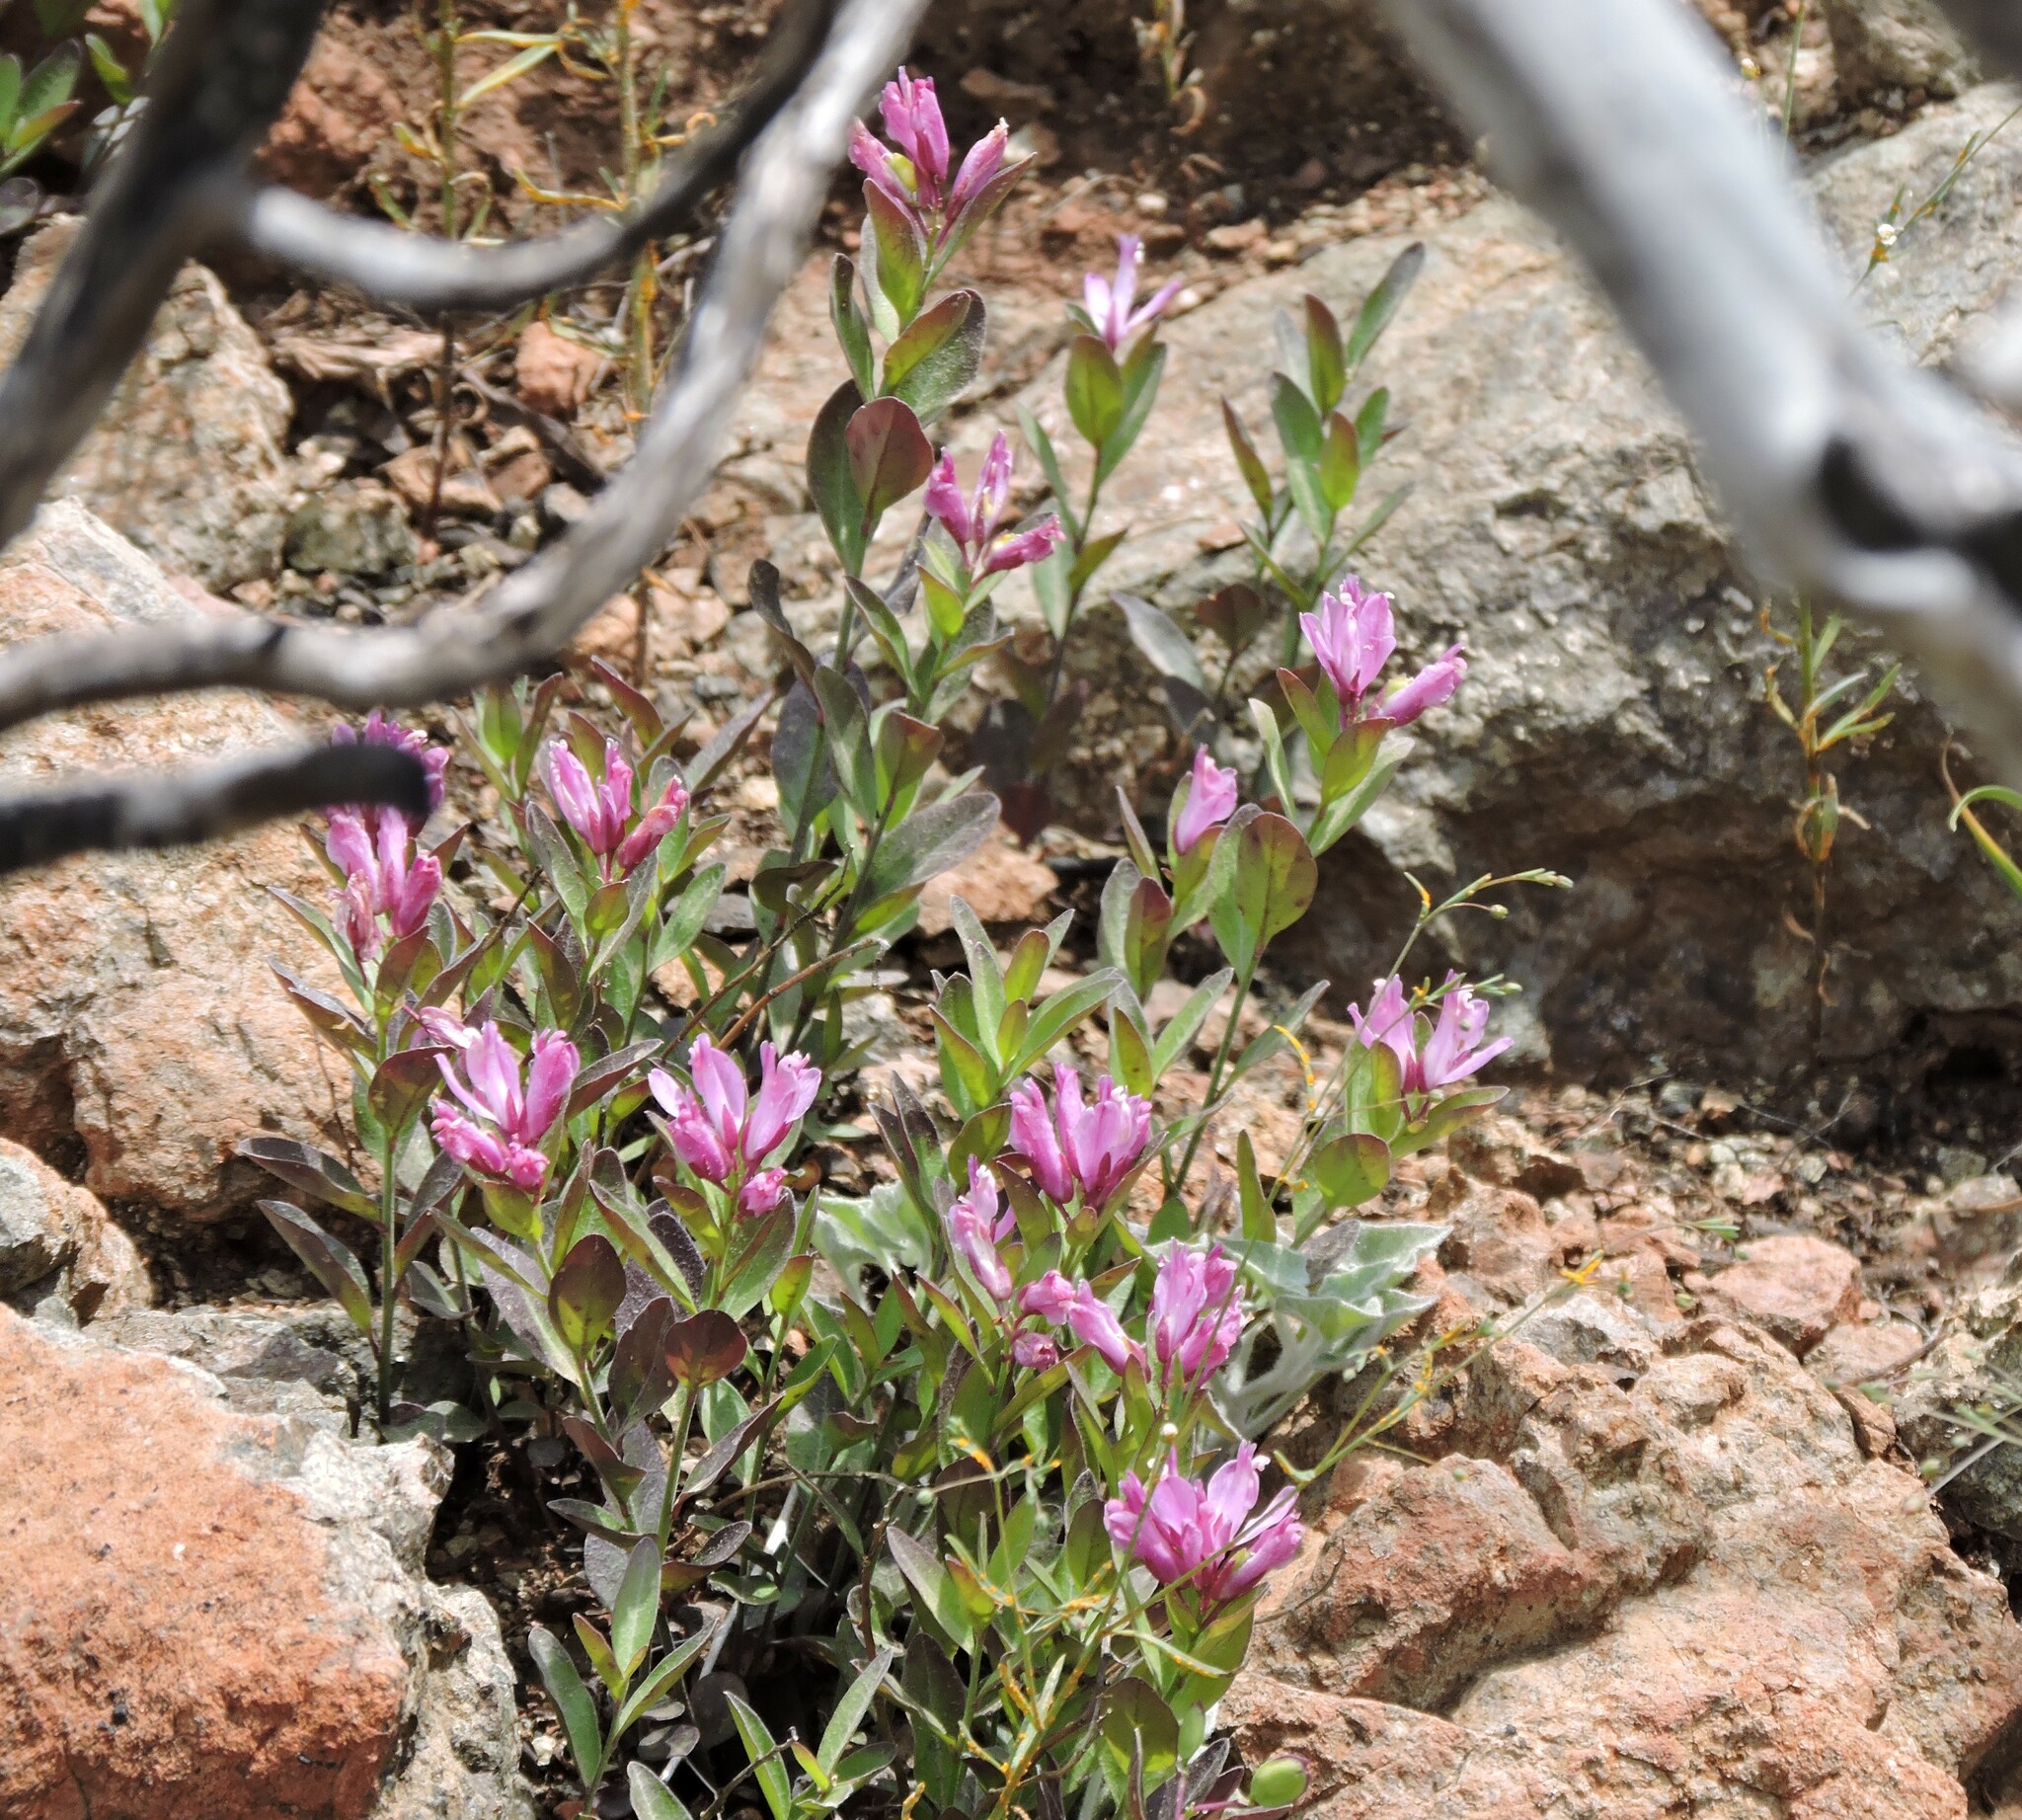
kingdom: Plantae
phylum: Tracheophyta
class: Magnoliopsida
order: Fabales
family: Polygalaceae
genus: Rhinotropis
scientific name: Rhinotropis californica
